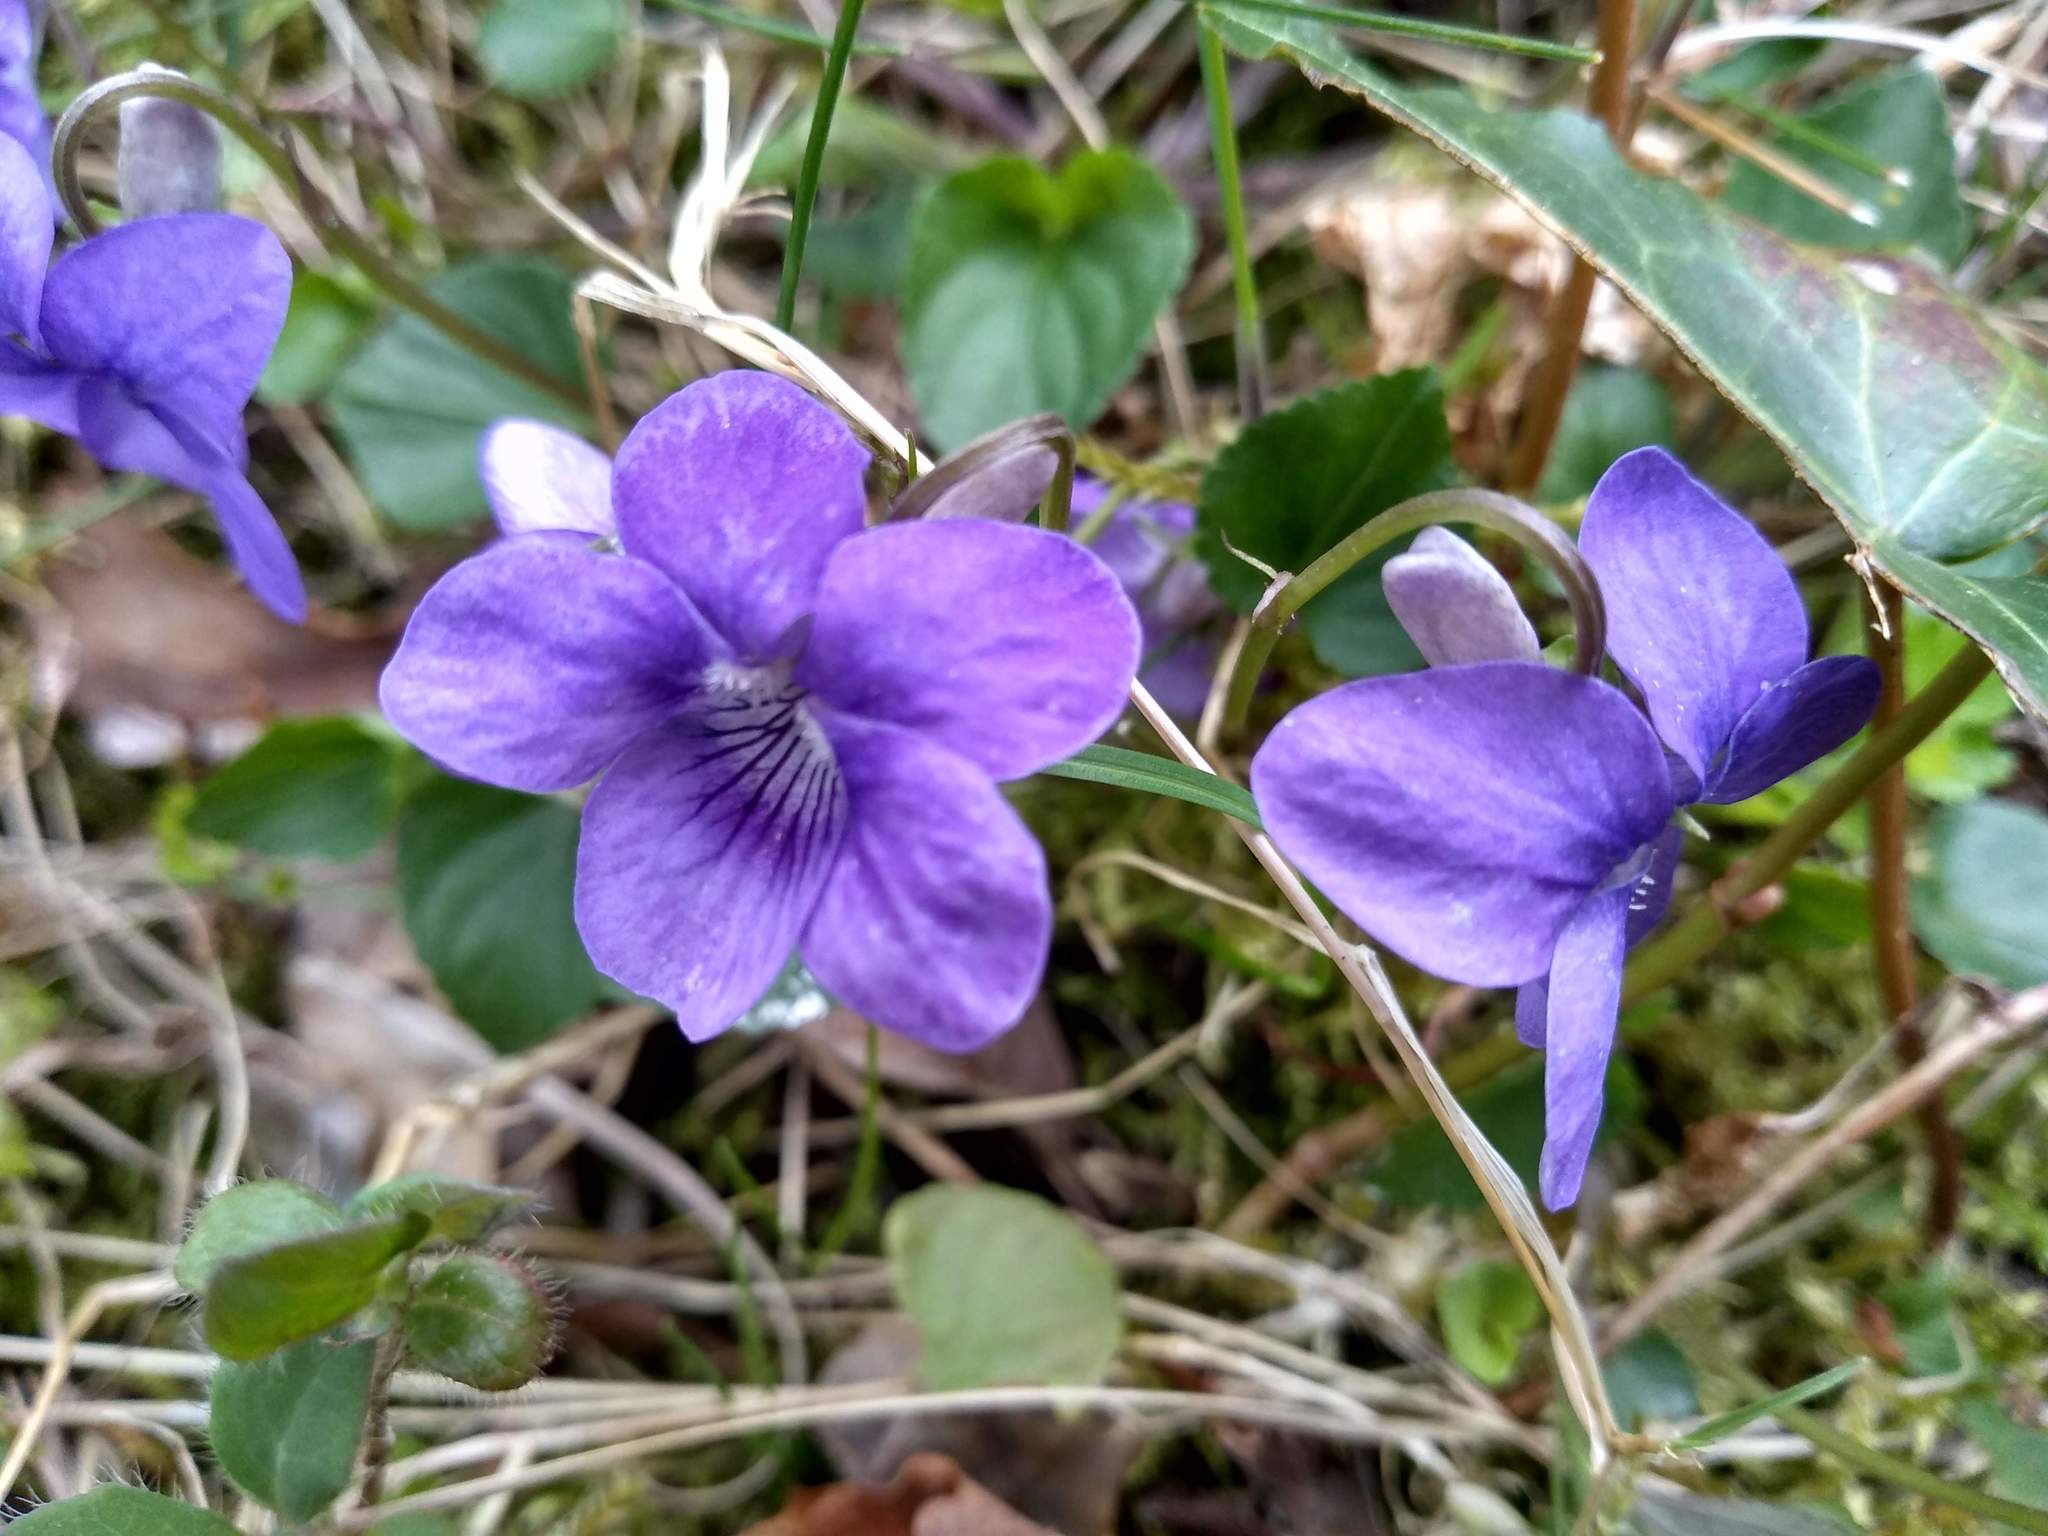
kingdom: Plantae
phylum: Tracheophyta
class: Magnoliopsida
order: Malpighiales
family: Violaceae
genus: Viola
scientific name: Viola riviniana
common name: Common dog-violet
